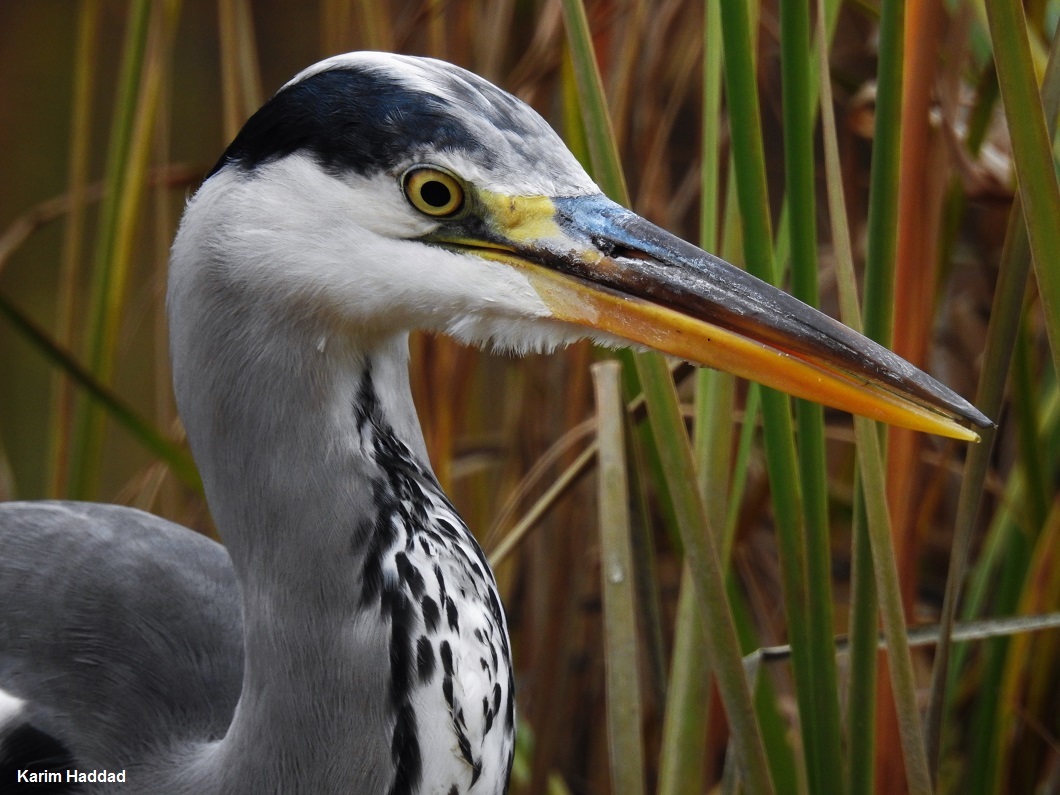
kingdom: Animalia
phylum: Chordata
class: Aves
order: Pelecaniformes
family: Ardeidae
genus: Ardea
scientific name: Ardea cinerea
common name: Grey heron
